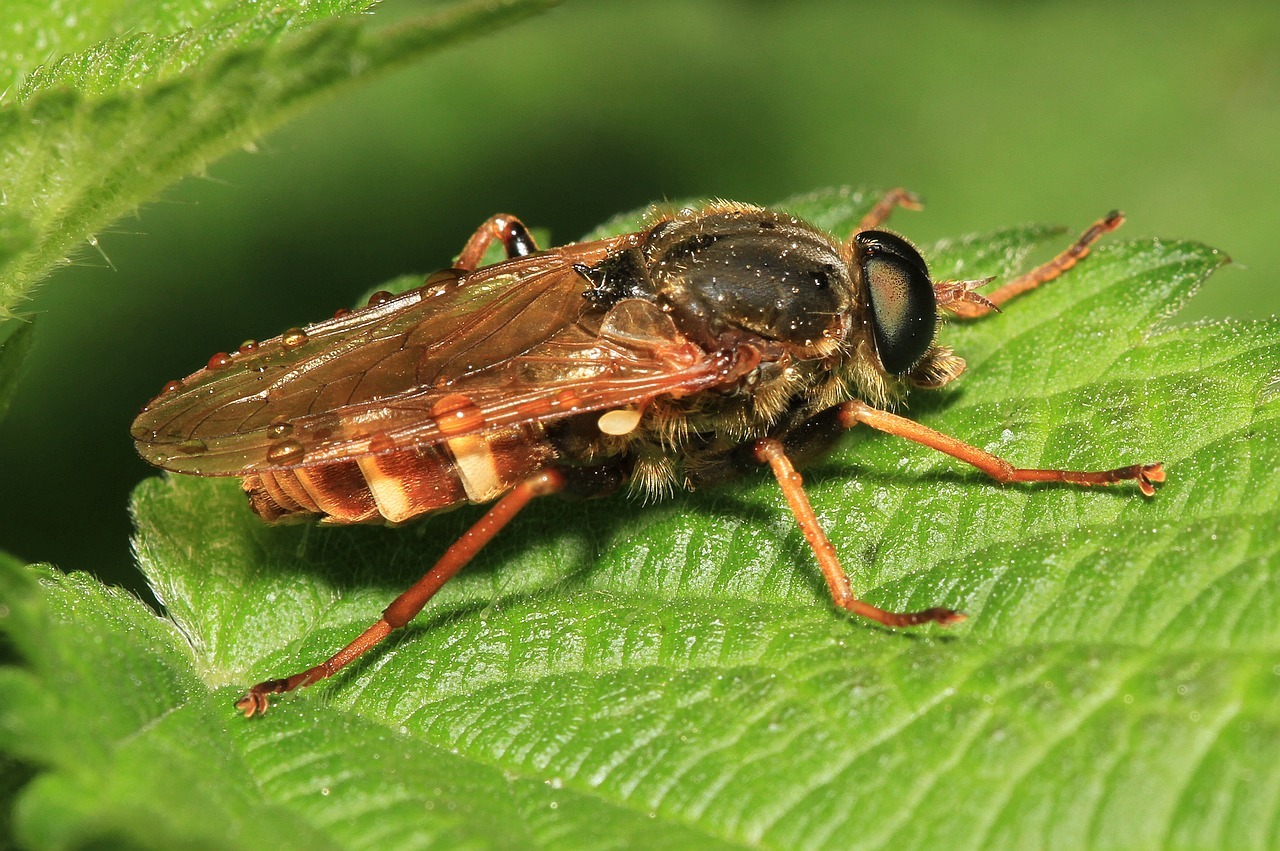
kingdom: Animalia
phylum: Arthropoda
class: Insecta
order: Diptera
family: Xylophagidae
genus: Coenomyia
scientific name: Coenomyia ferruginea
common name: Stink fly
